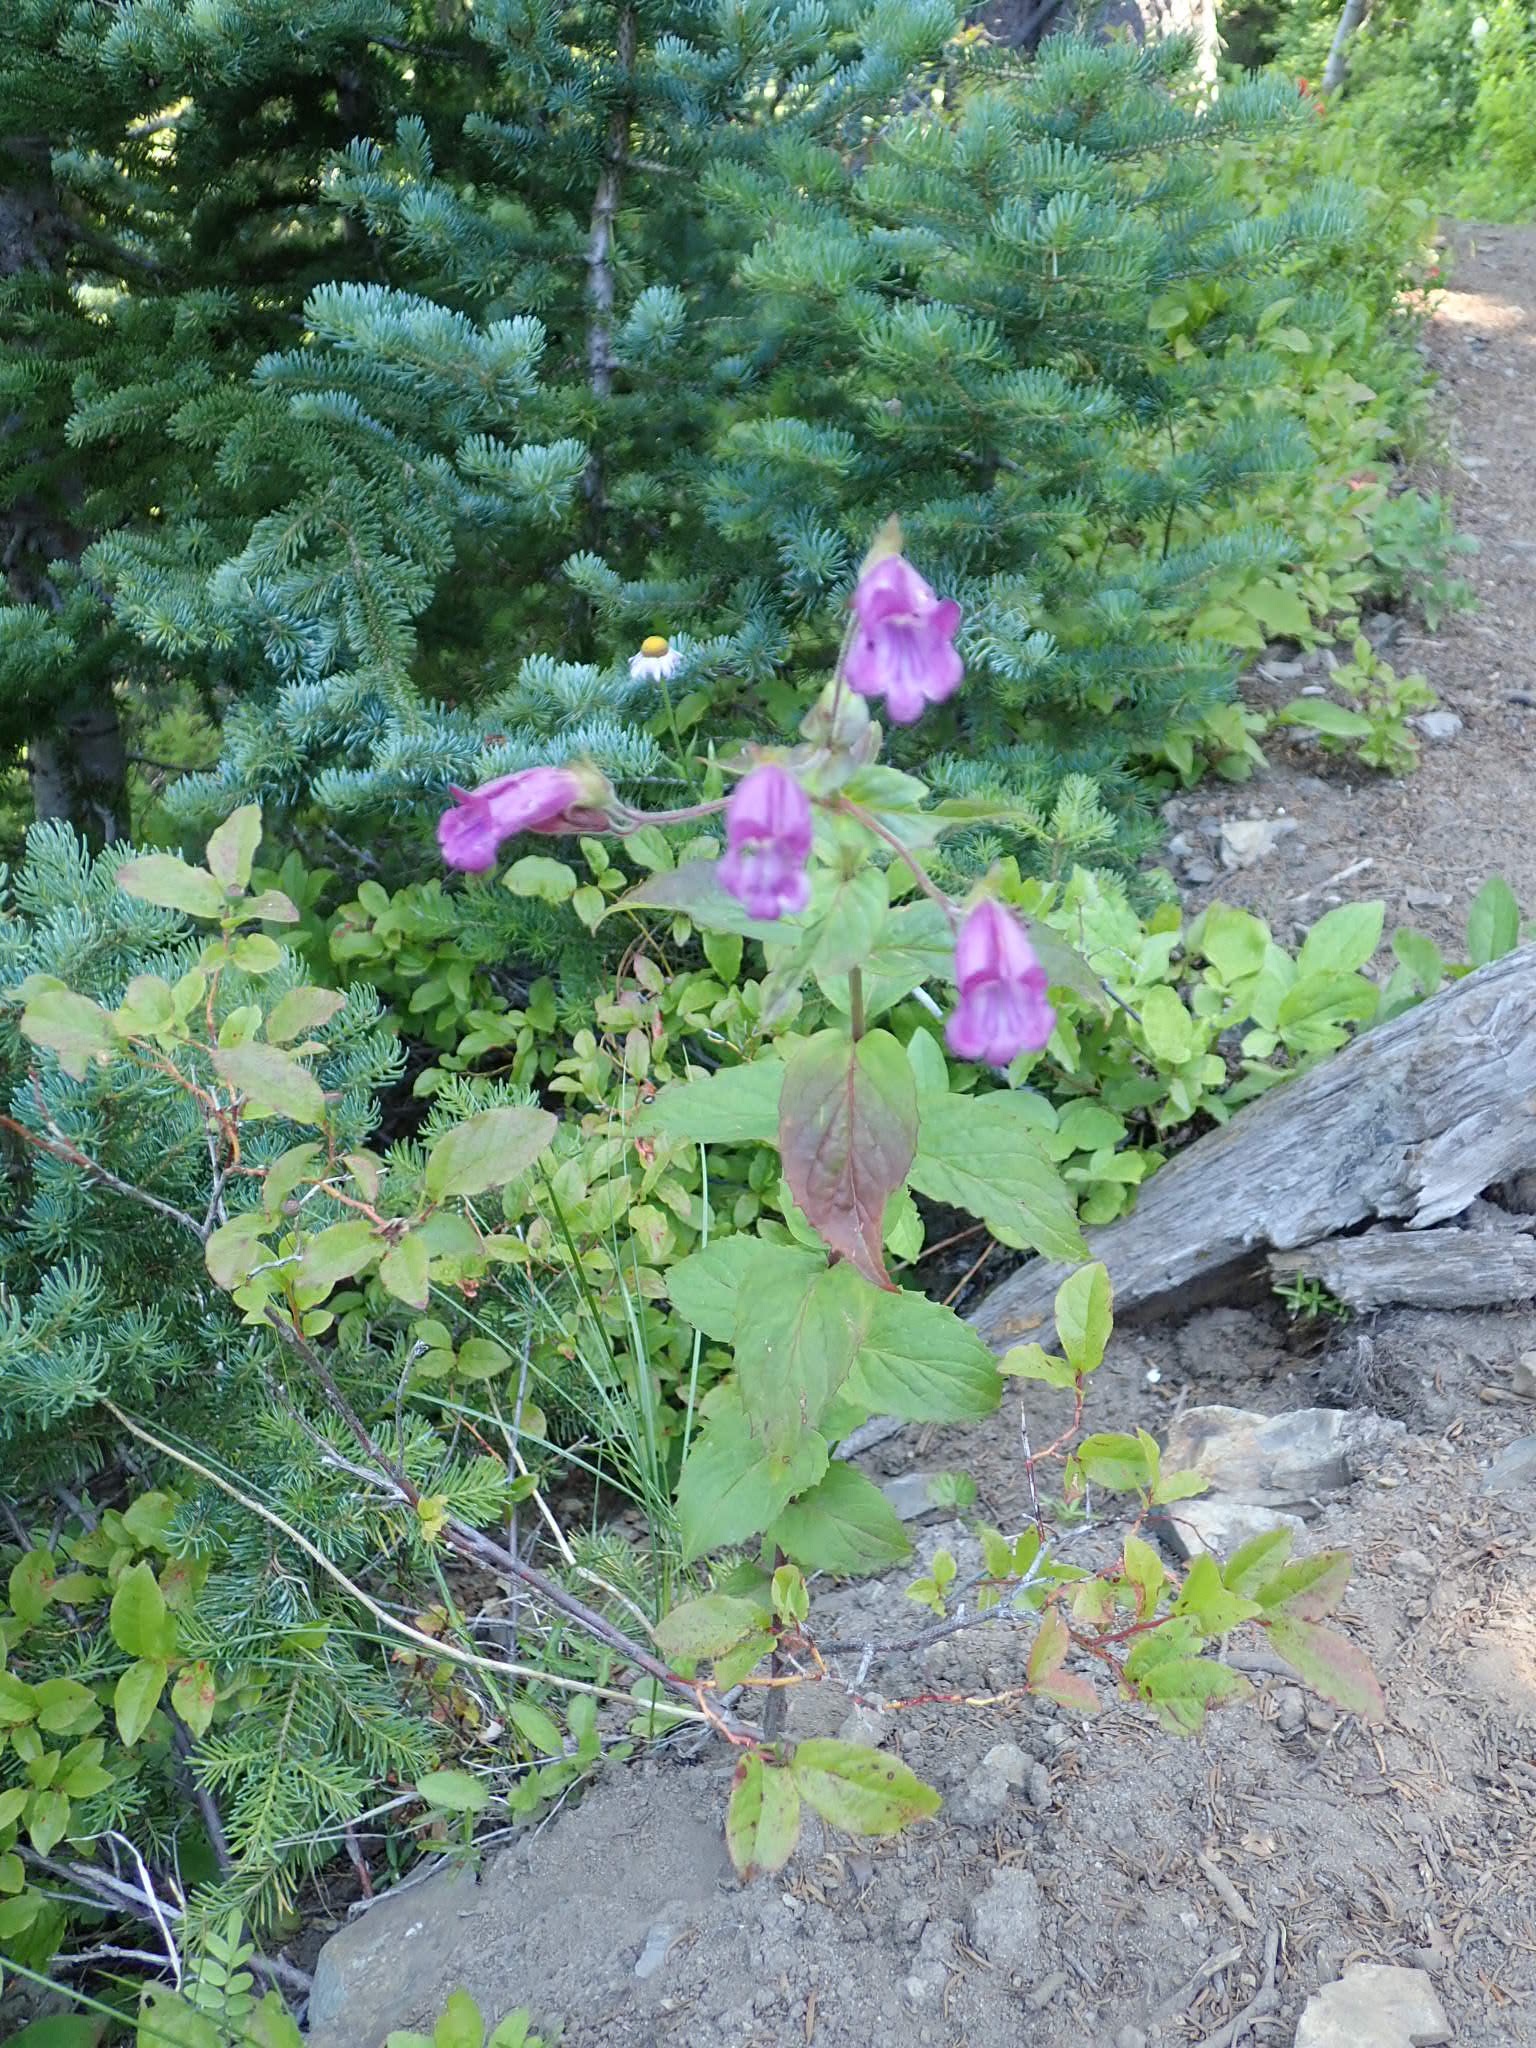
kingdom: Plantae
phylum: Tracheophyta
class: Magnoliopsida
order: Lamiales
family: Plantaginaceae
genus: Nothochelone
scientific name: Nothochelone nemorosa
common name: Woodland beardtongue
